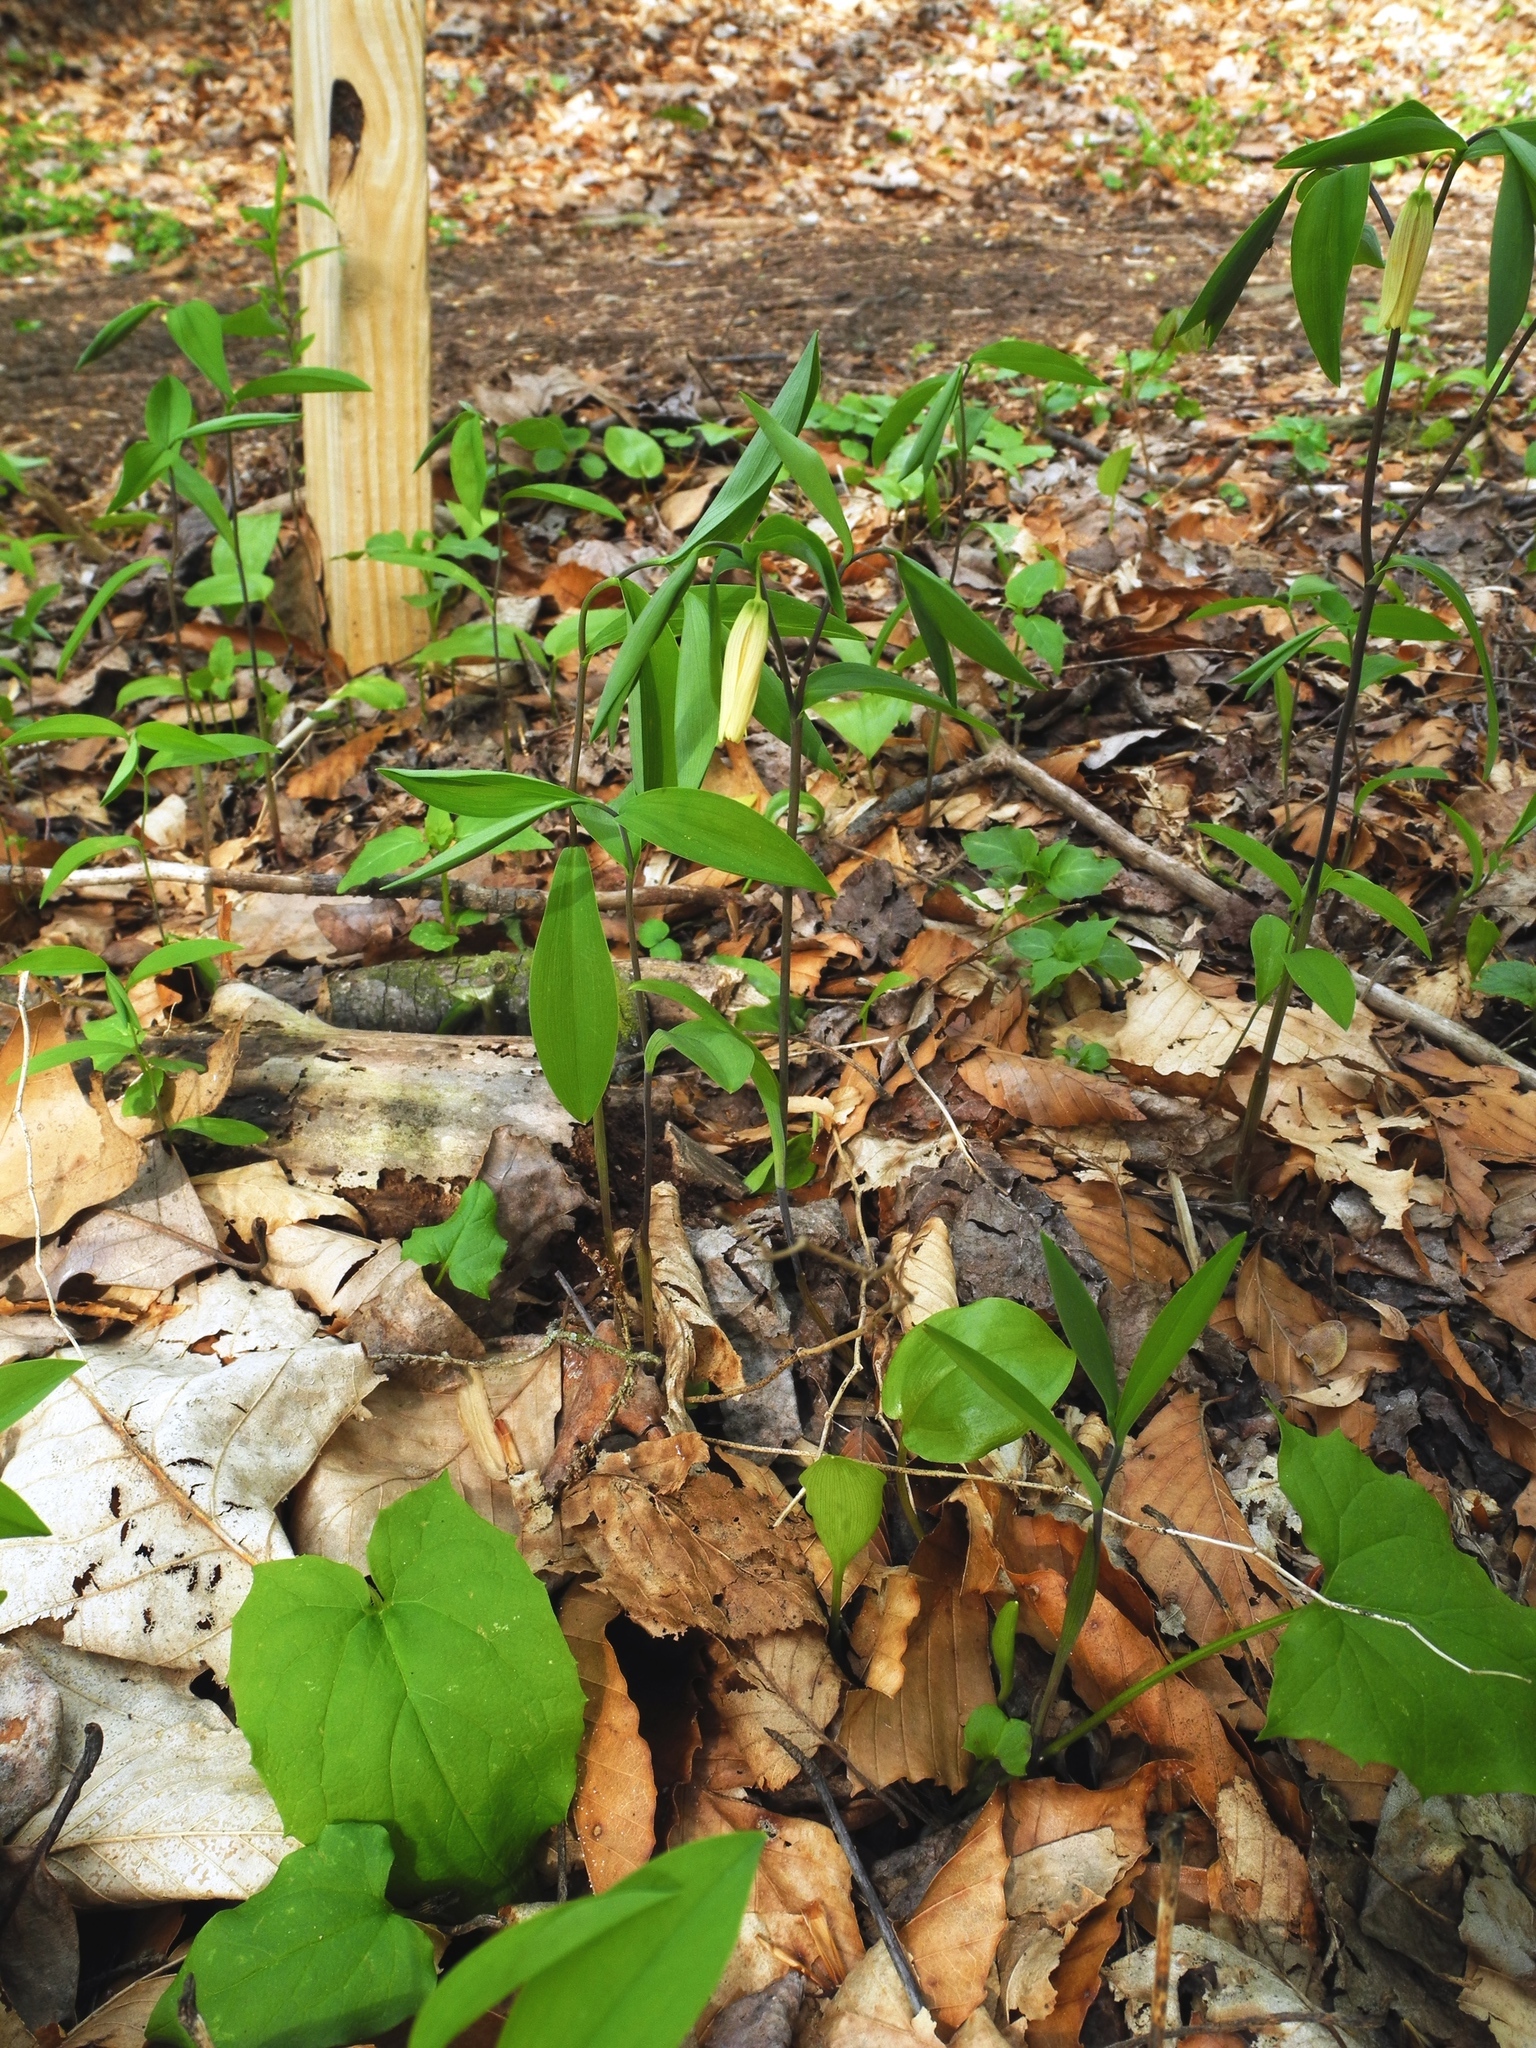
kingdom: Plantae
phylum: Tracheophyta
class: Liliopsida
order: Liliales
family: Colchicaceae
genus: Uvularia
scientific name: Uvularia sessilifolia
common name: Straw-lily
